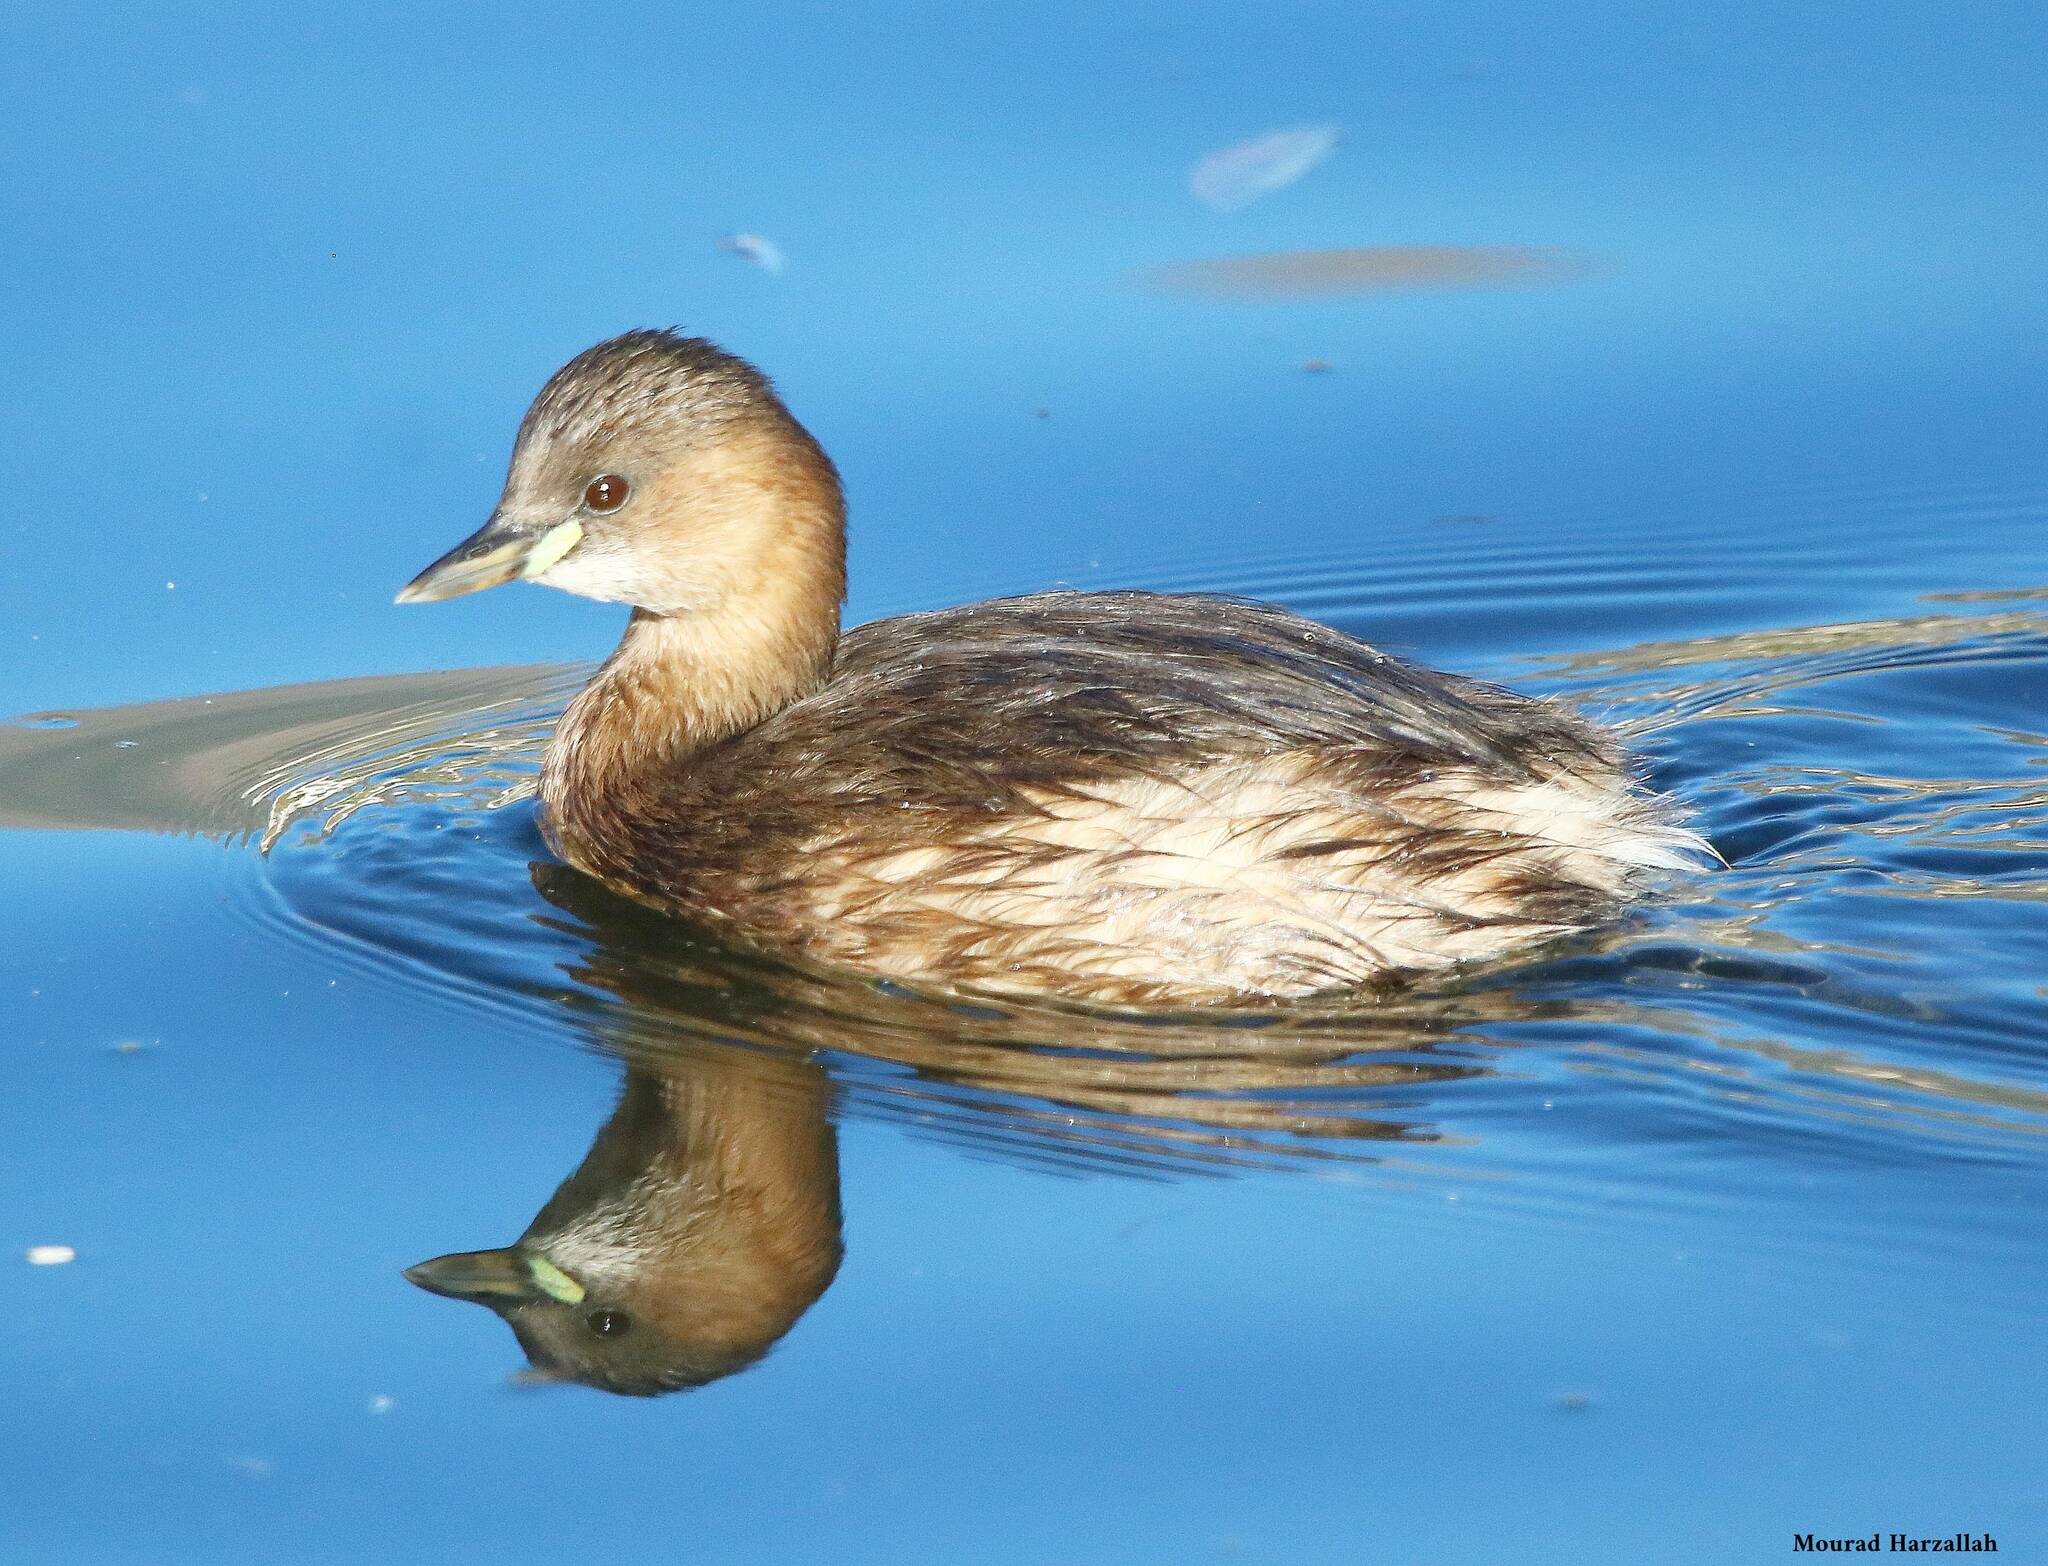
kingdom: Animalia
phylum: Chordata
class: Aves
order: Podicipediformes
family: Podicipedidae
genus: Tachybaptus
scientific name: Tachybaptus ruficollis
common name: Little grebe
